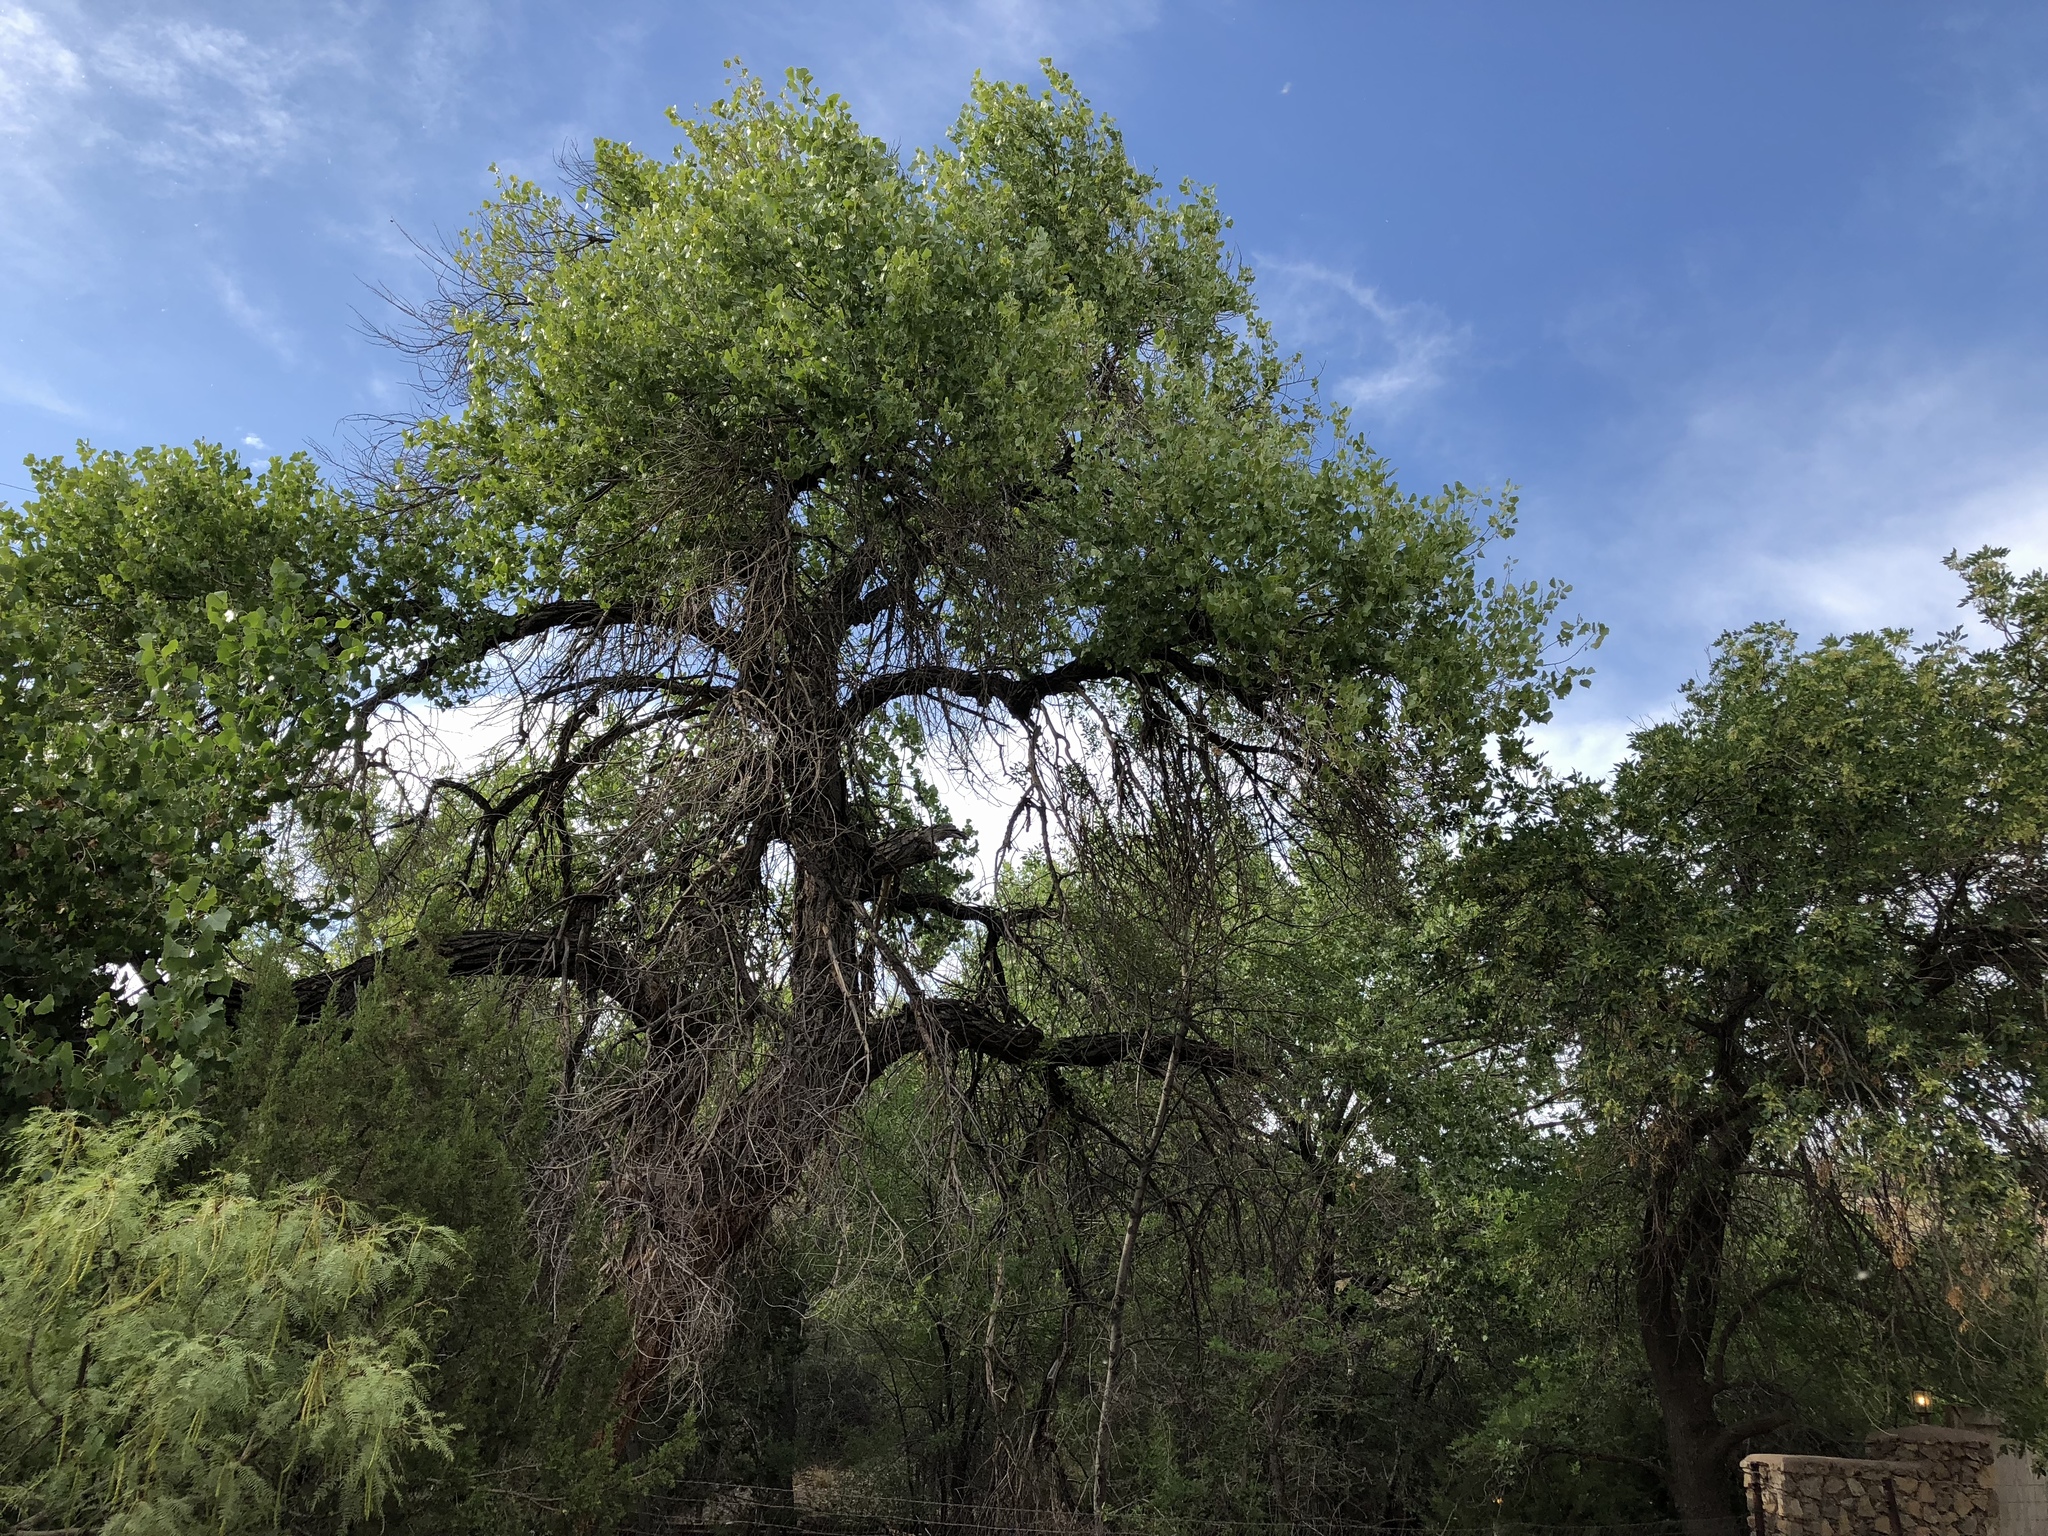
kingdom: Plantae
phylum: Tracheophyta
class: Magnoliopsida
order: Malpighiales
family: Salicaceae
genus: Populus
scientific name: Populus fremontii
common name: Fremont's cottonwood
